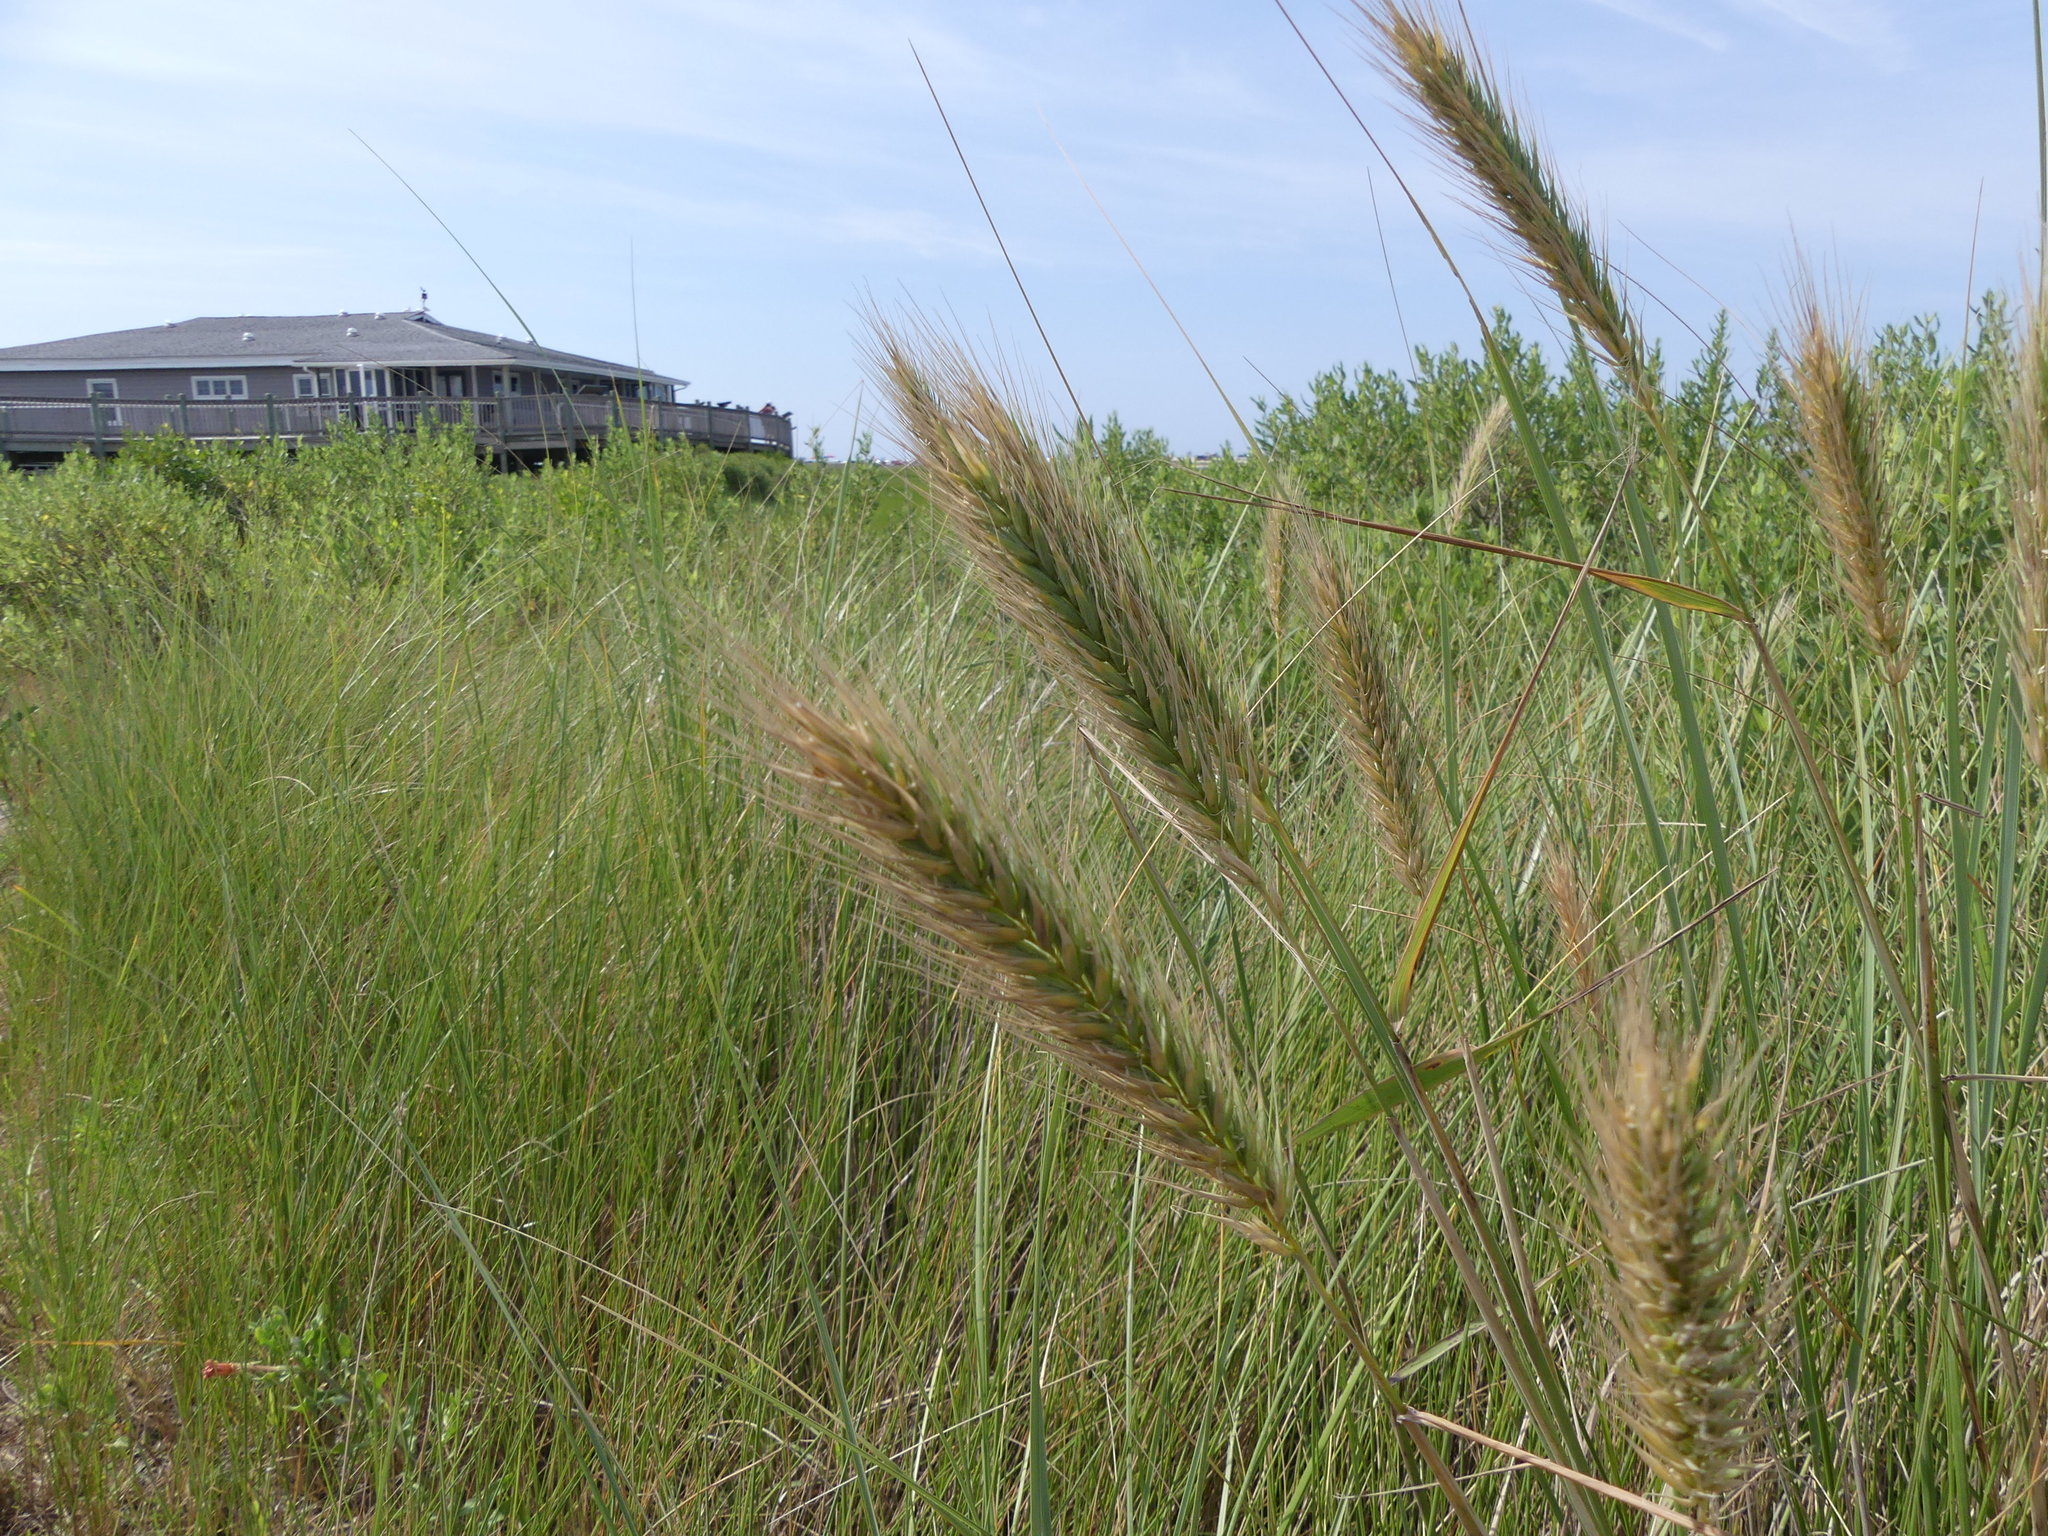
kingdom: Plantae
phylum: Tracheophyta
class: Liliopsida
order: Poales
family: Poaceae
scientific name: Poaceae
